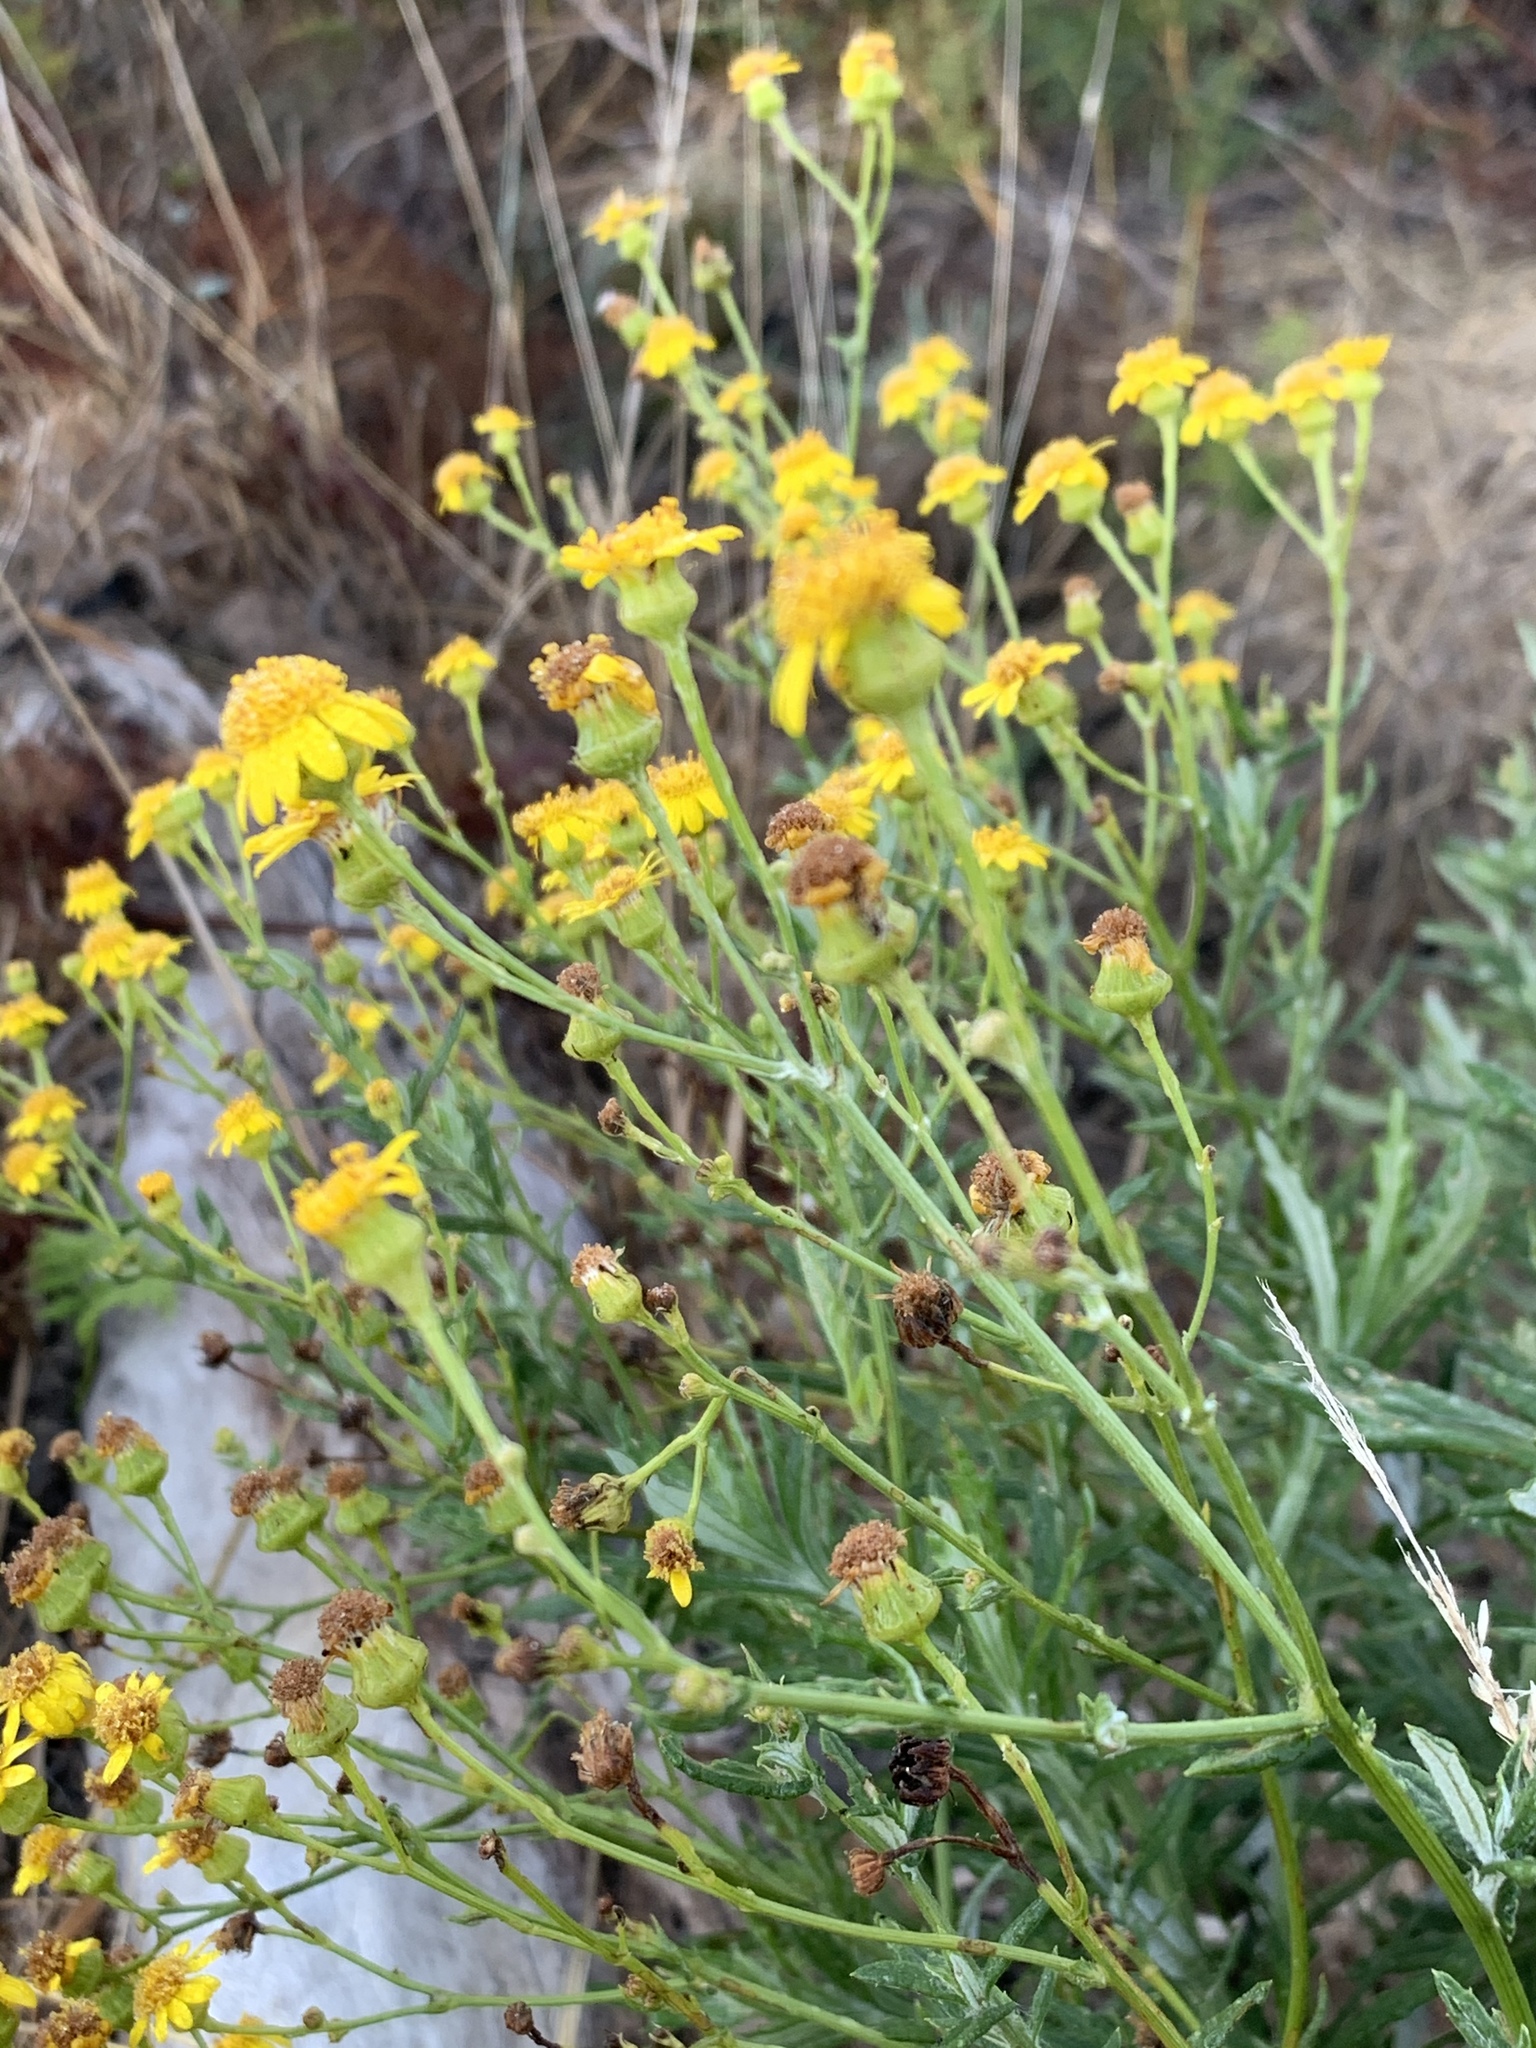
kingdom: Plantae
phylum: Tracheophyta
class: Magnoliopsida
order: Asterales
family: Asteraceae
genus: Senecio
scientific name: Senecio pterophorus
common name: Shoddy ragwort
